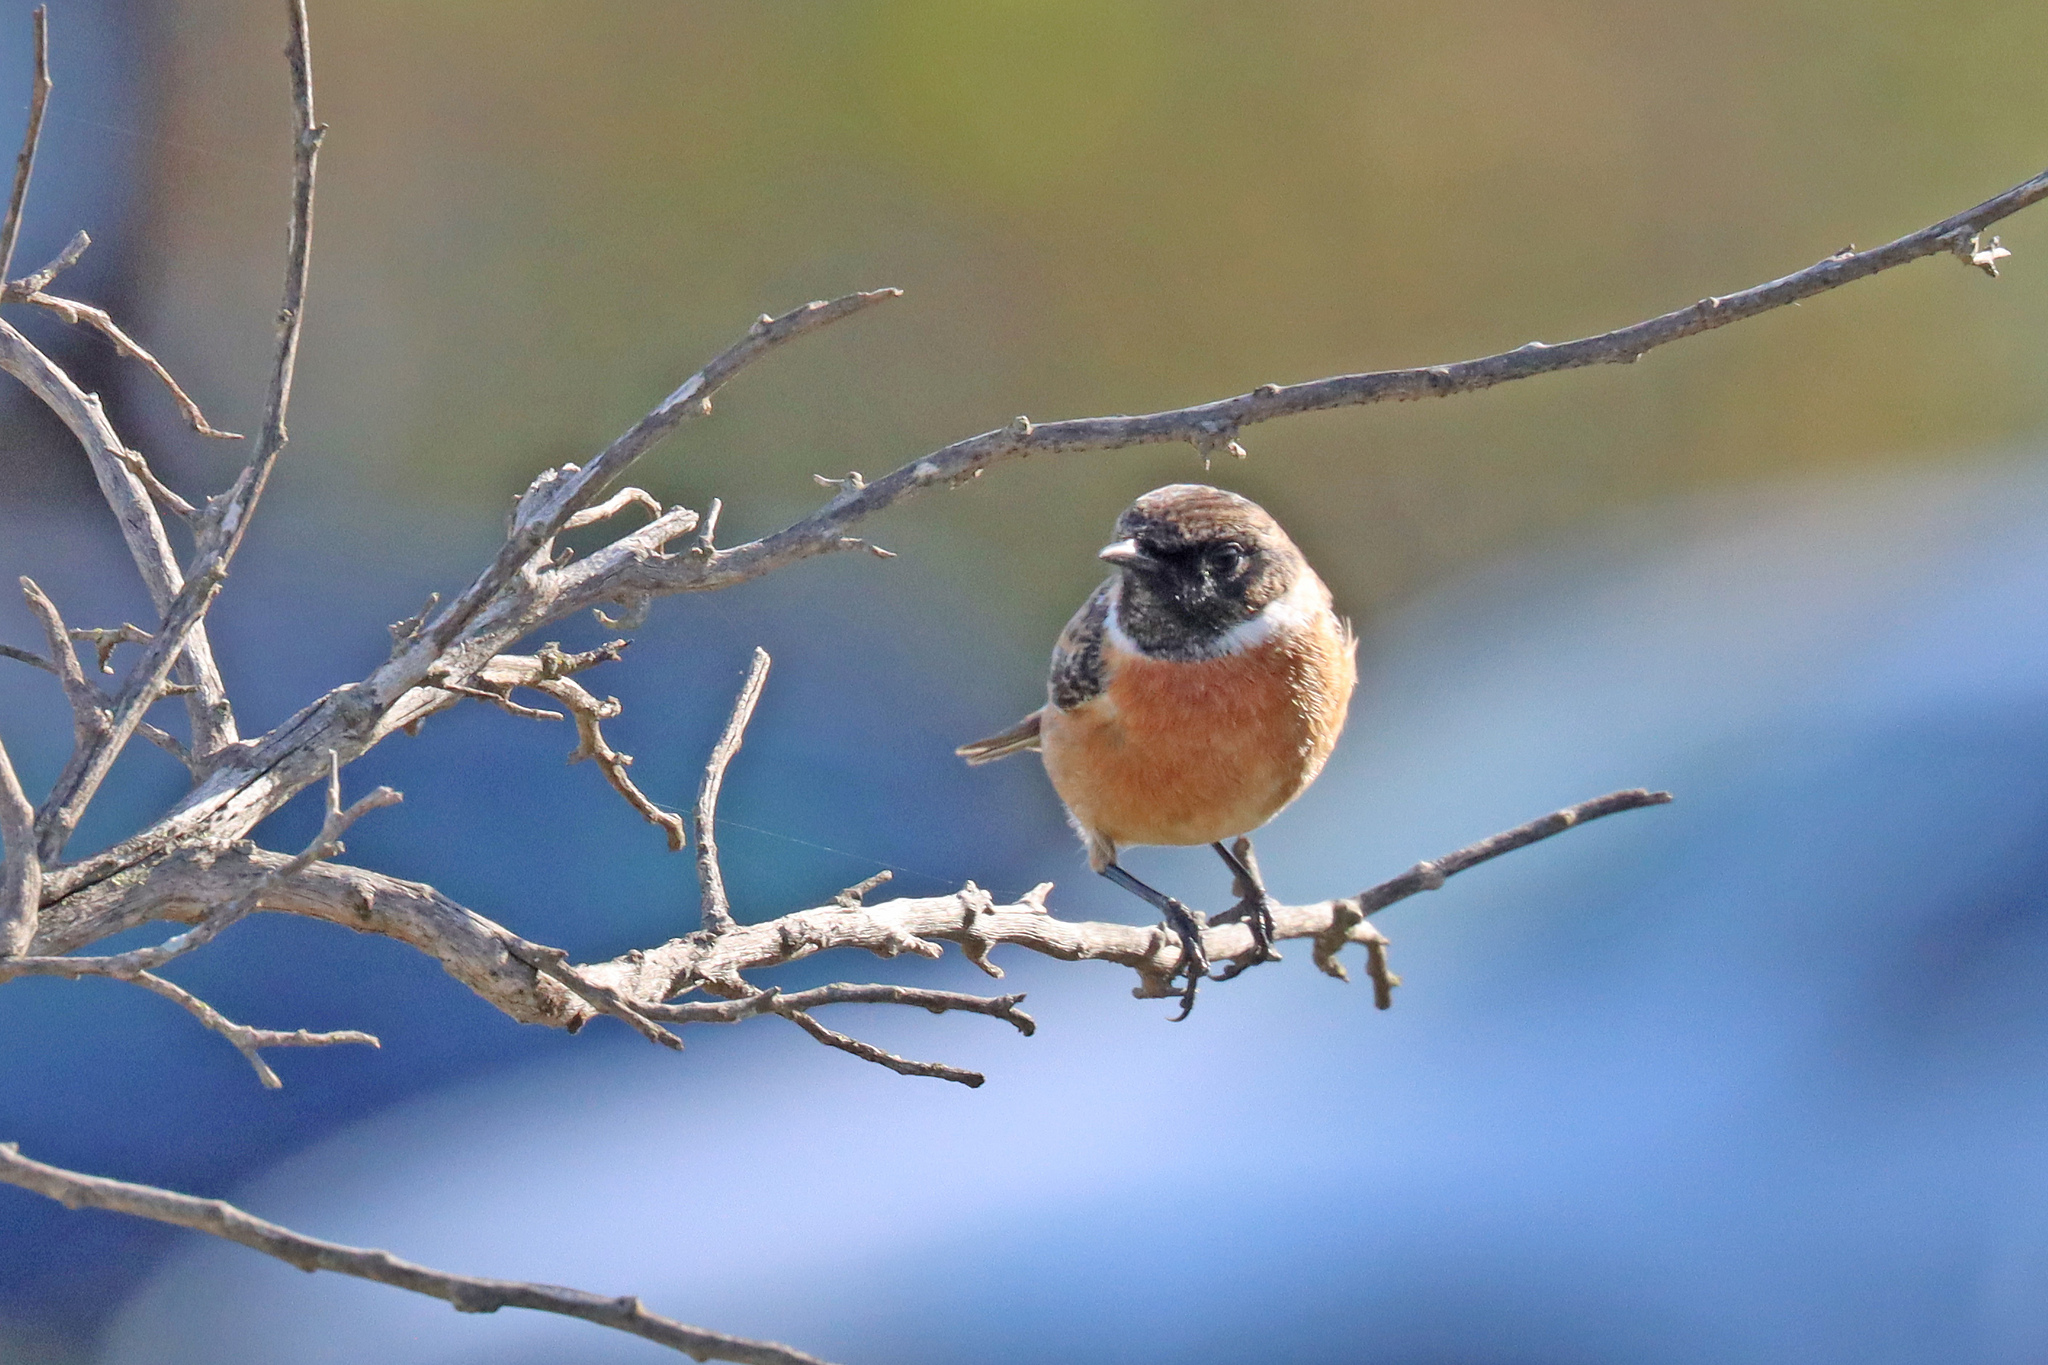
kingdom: Animalia
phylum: Chordata
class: Aves
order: Passeriformes
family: Muscicapidae
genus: Saxicola
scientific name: Saxicola rubicola
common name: European stonechat
